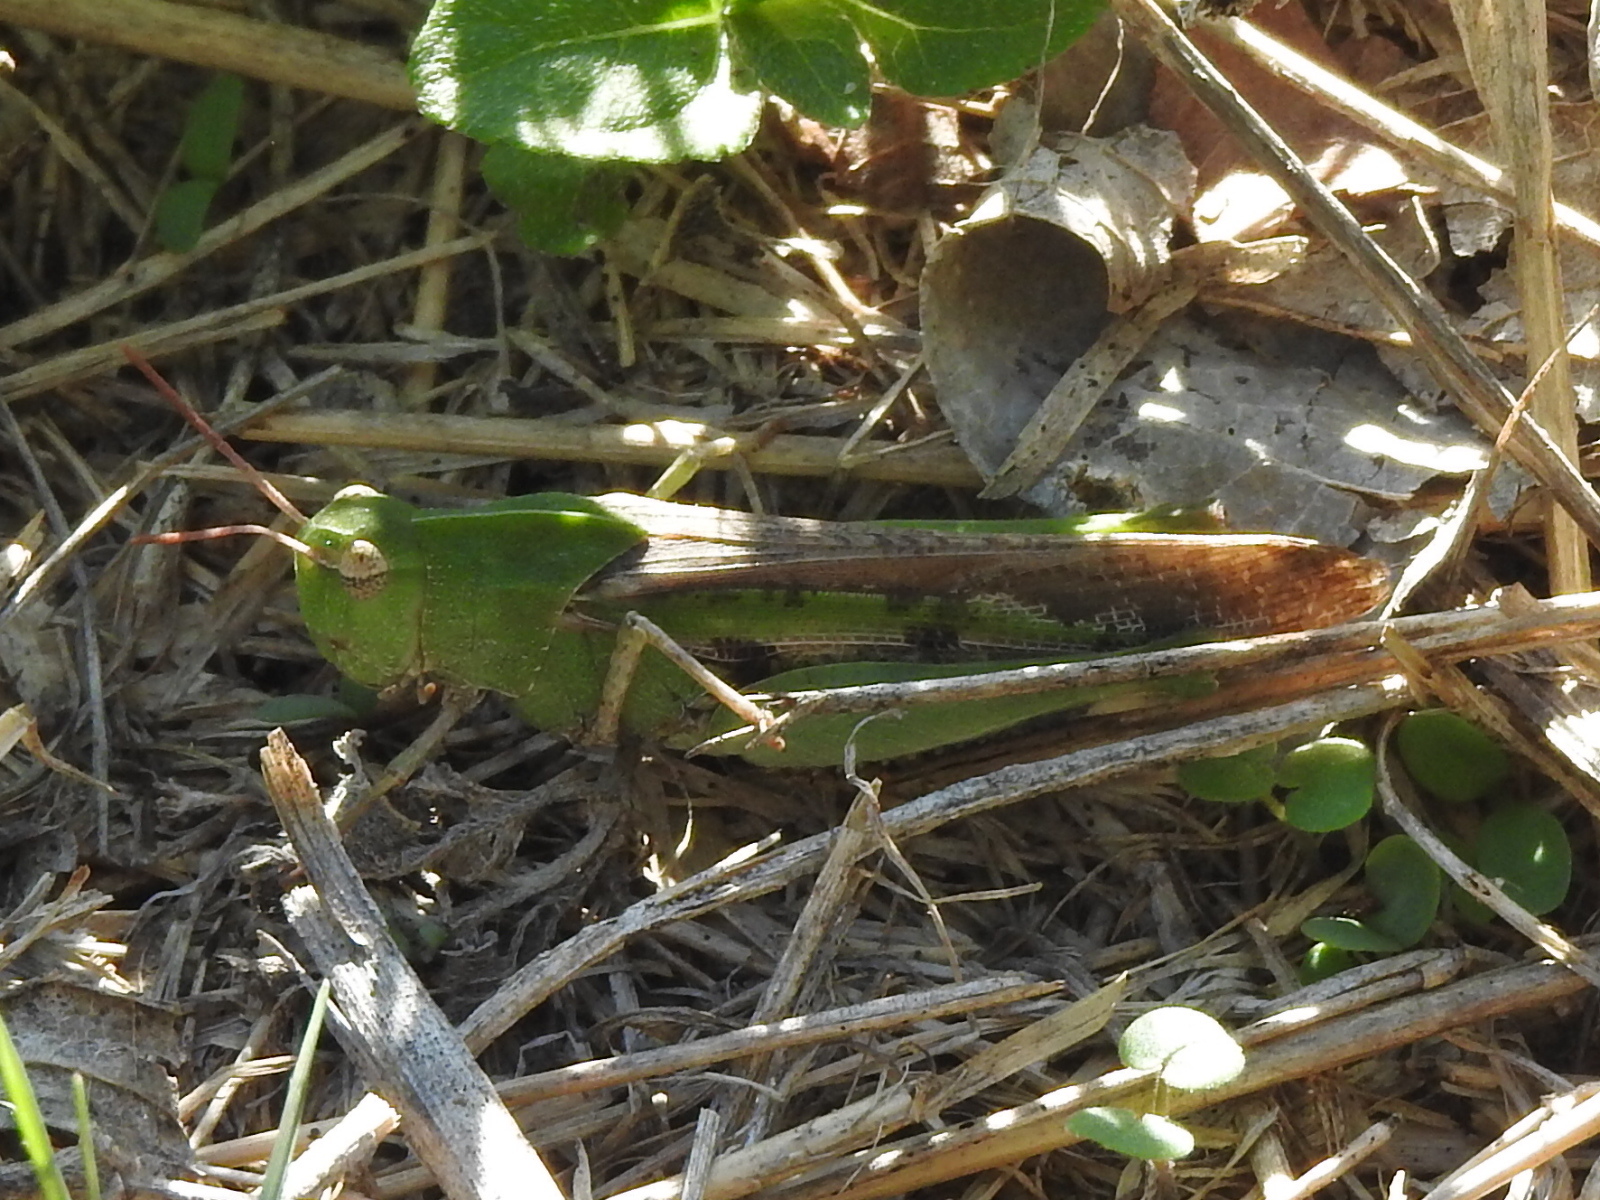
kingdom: Animalia
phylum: Arthropoda
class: Insecta
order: Orthoptera
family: Acrididae
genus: Chortophaga
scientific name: Chortophaga viridifasciata
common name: Green-striped grasshopper
